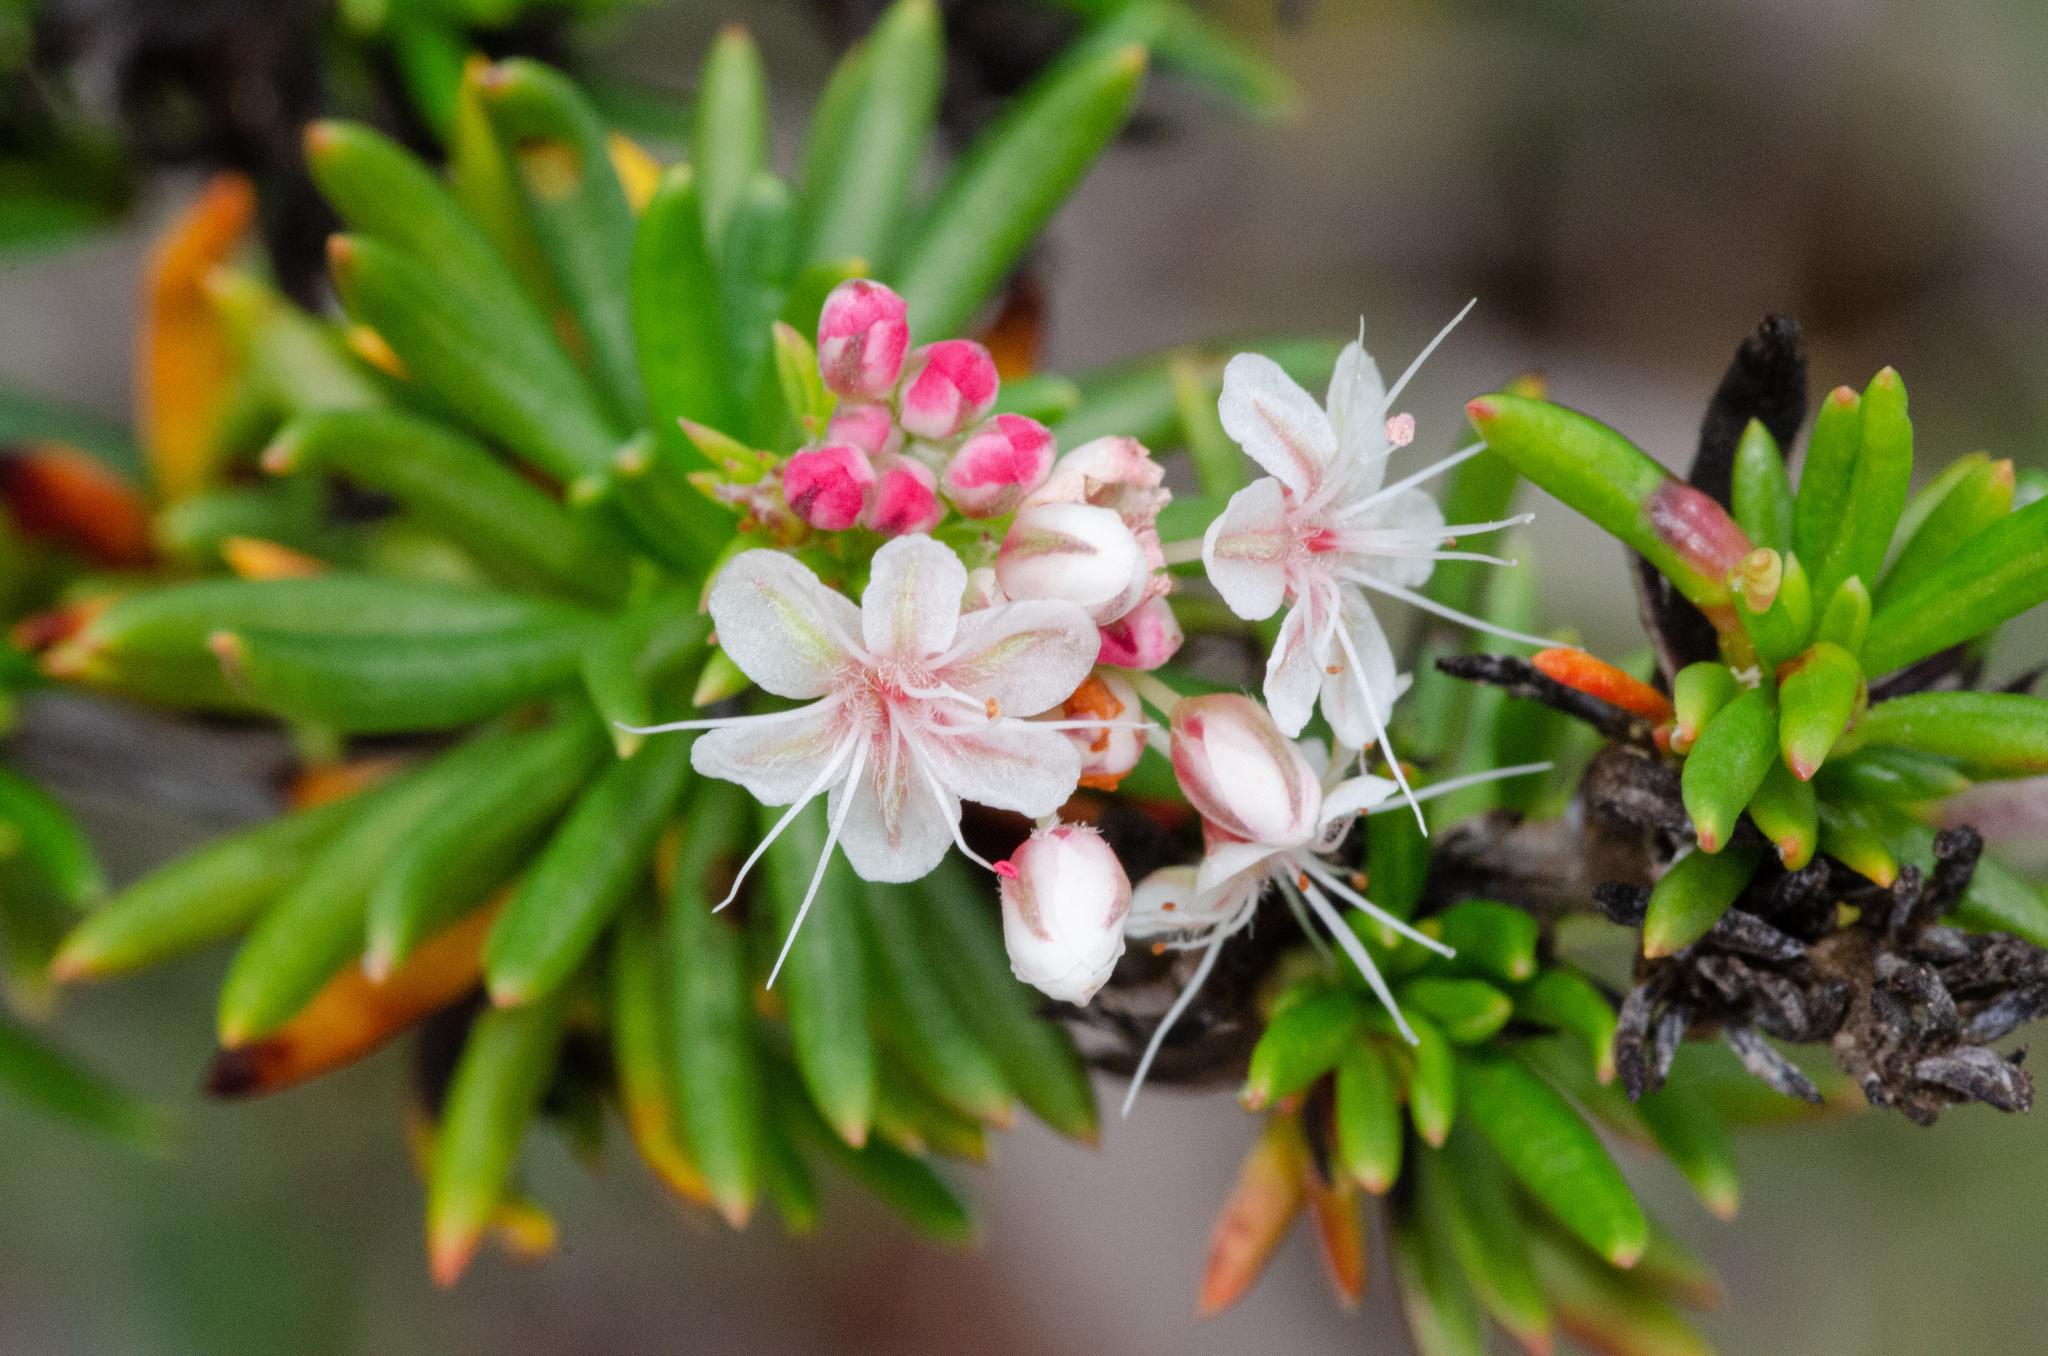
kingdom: Plantae
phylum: Tracheophyta
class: Magnoliopsida
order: Caryophyllales
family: Polygonaceae
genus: Eriogonum
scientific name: Eriogonum fasciculatum
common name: California wild buckwheat
